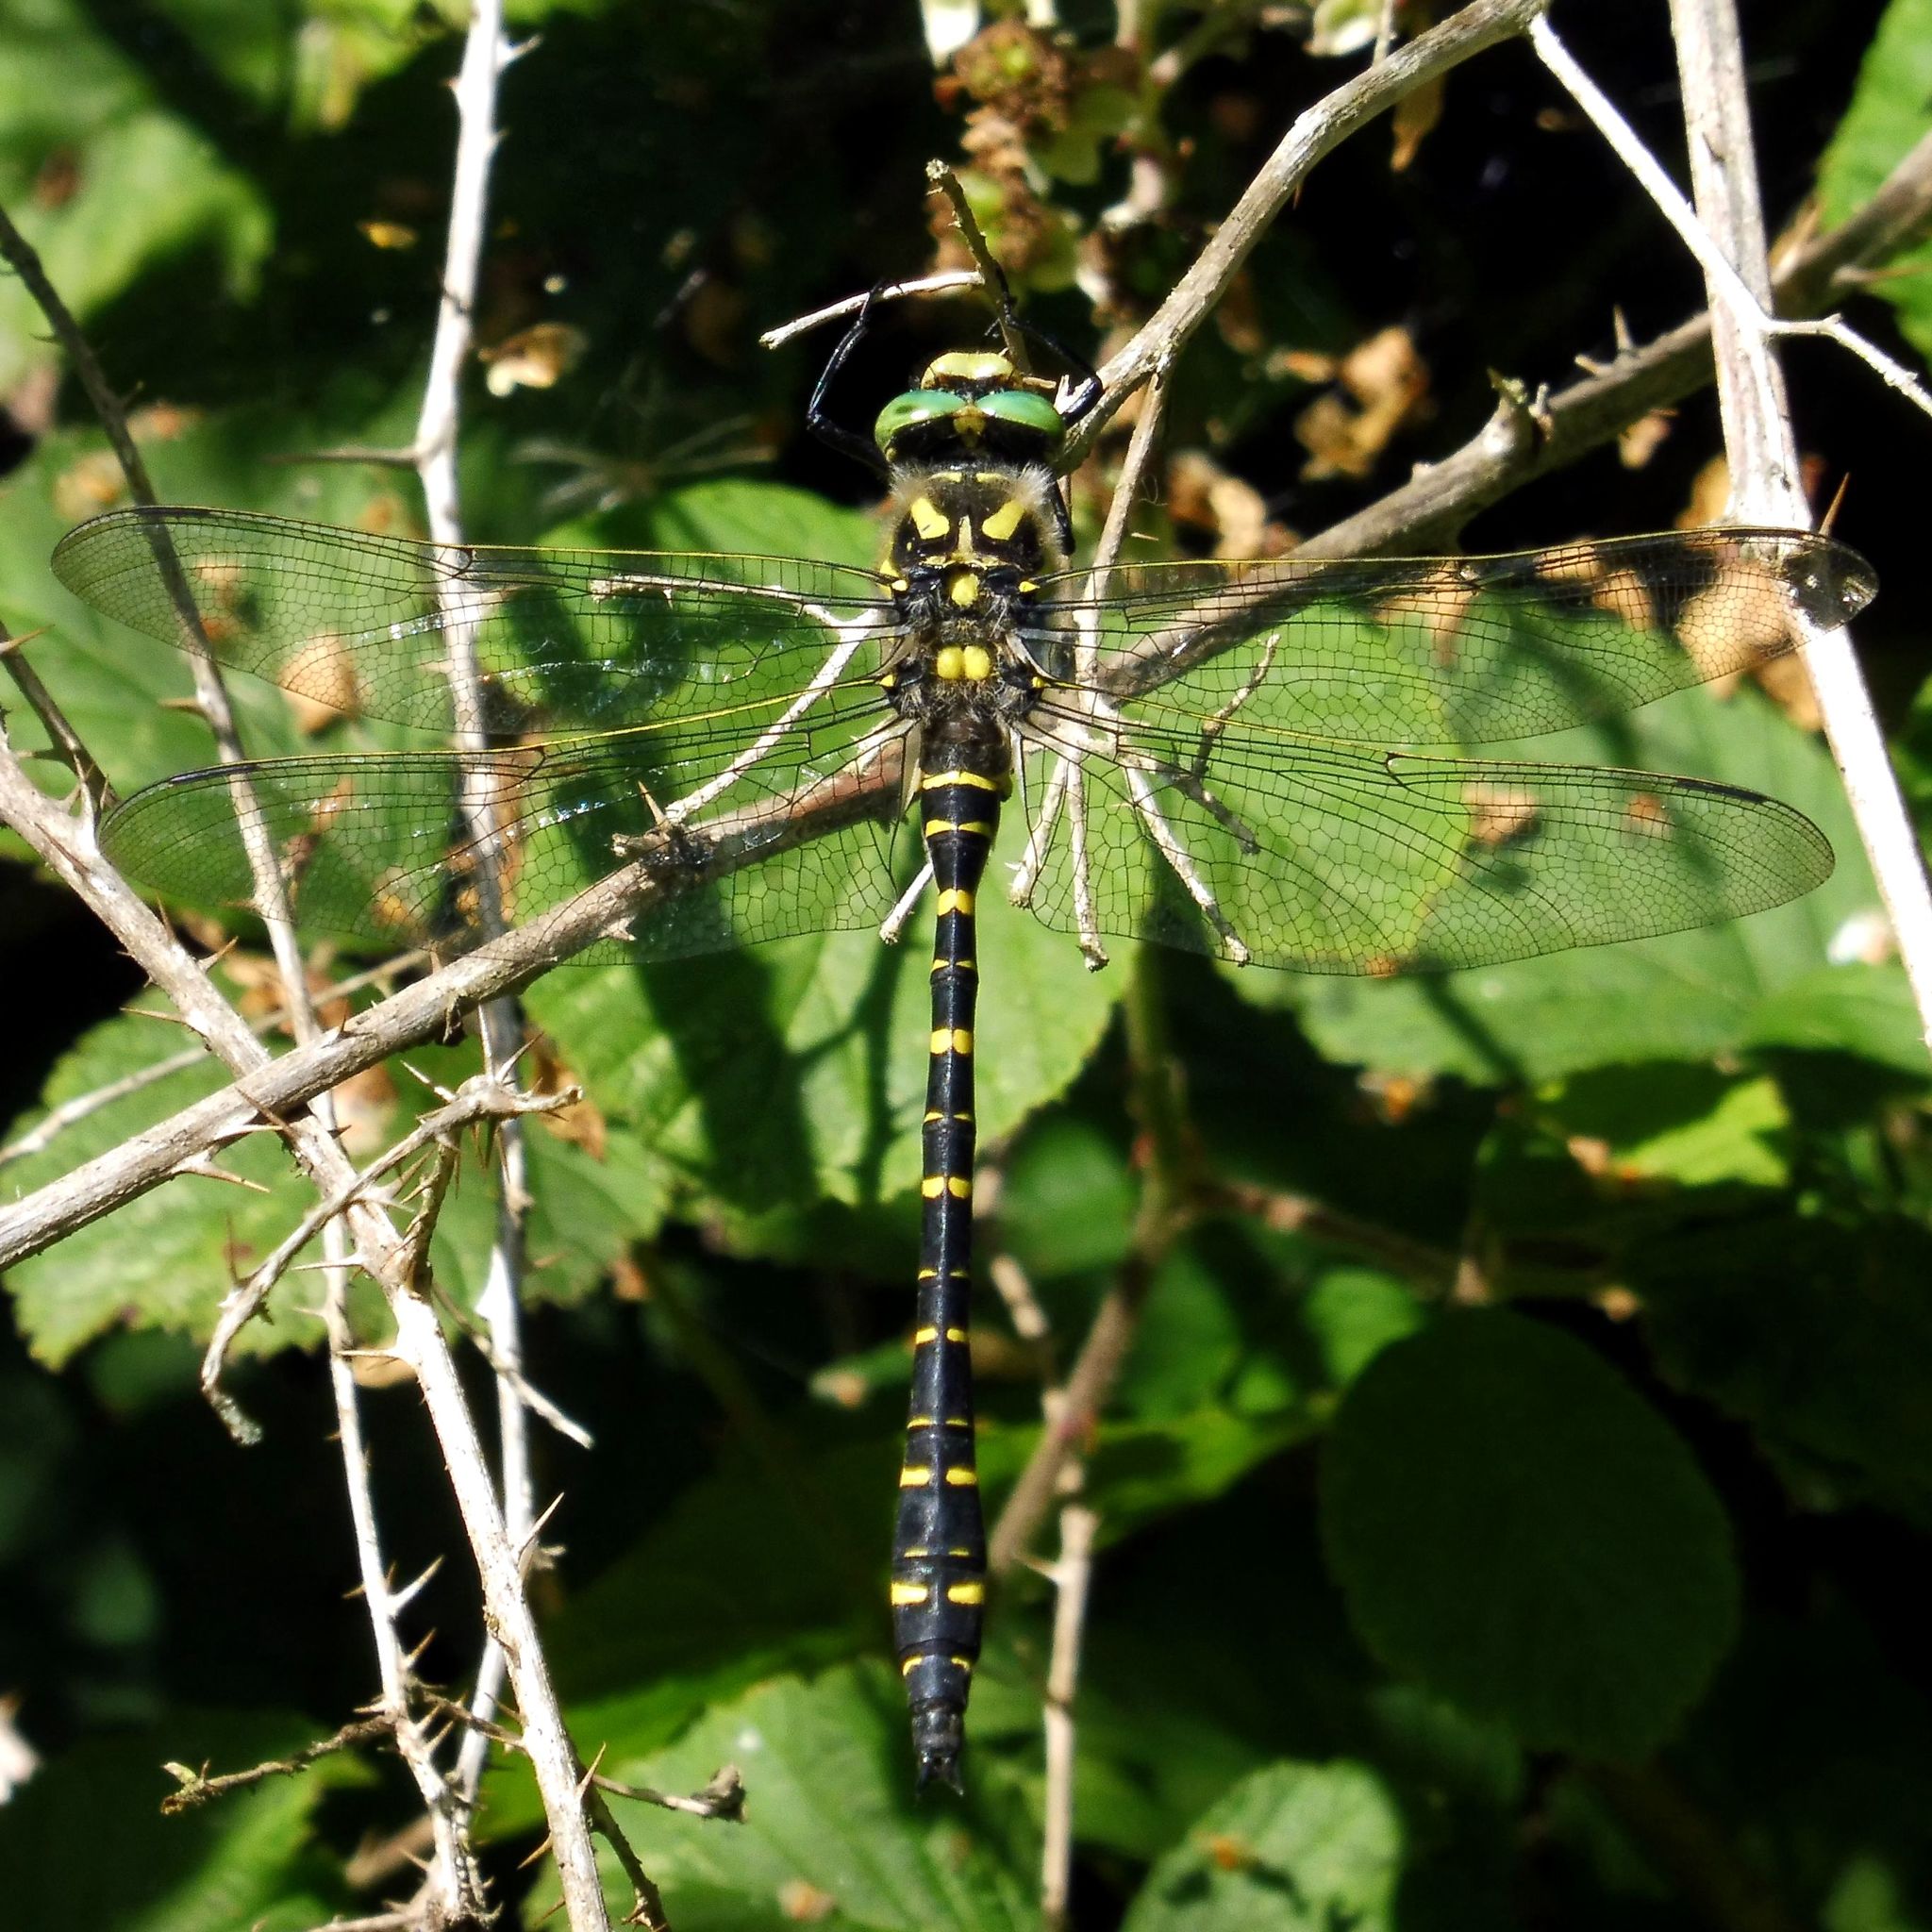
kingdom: Animalia
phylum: Arthropoda
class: Insecta
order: Odonata
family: Cordulegastridae
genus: Cordulegaster
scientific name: Cordulegaster boltonii
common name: Golden-ringed dragonfly
